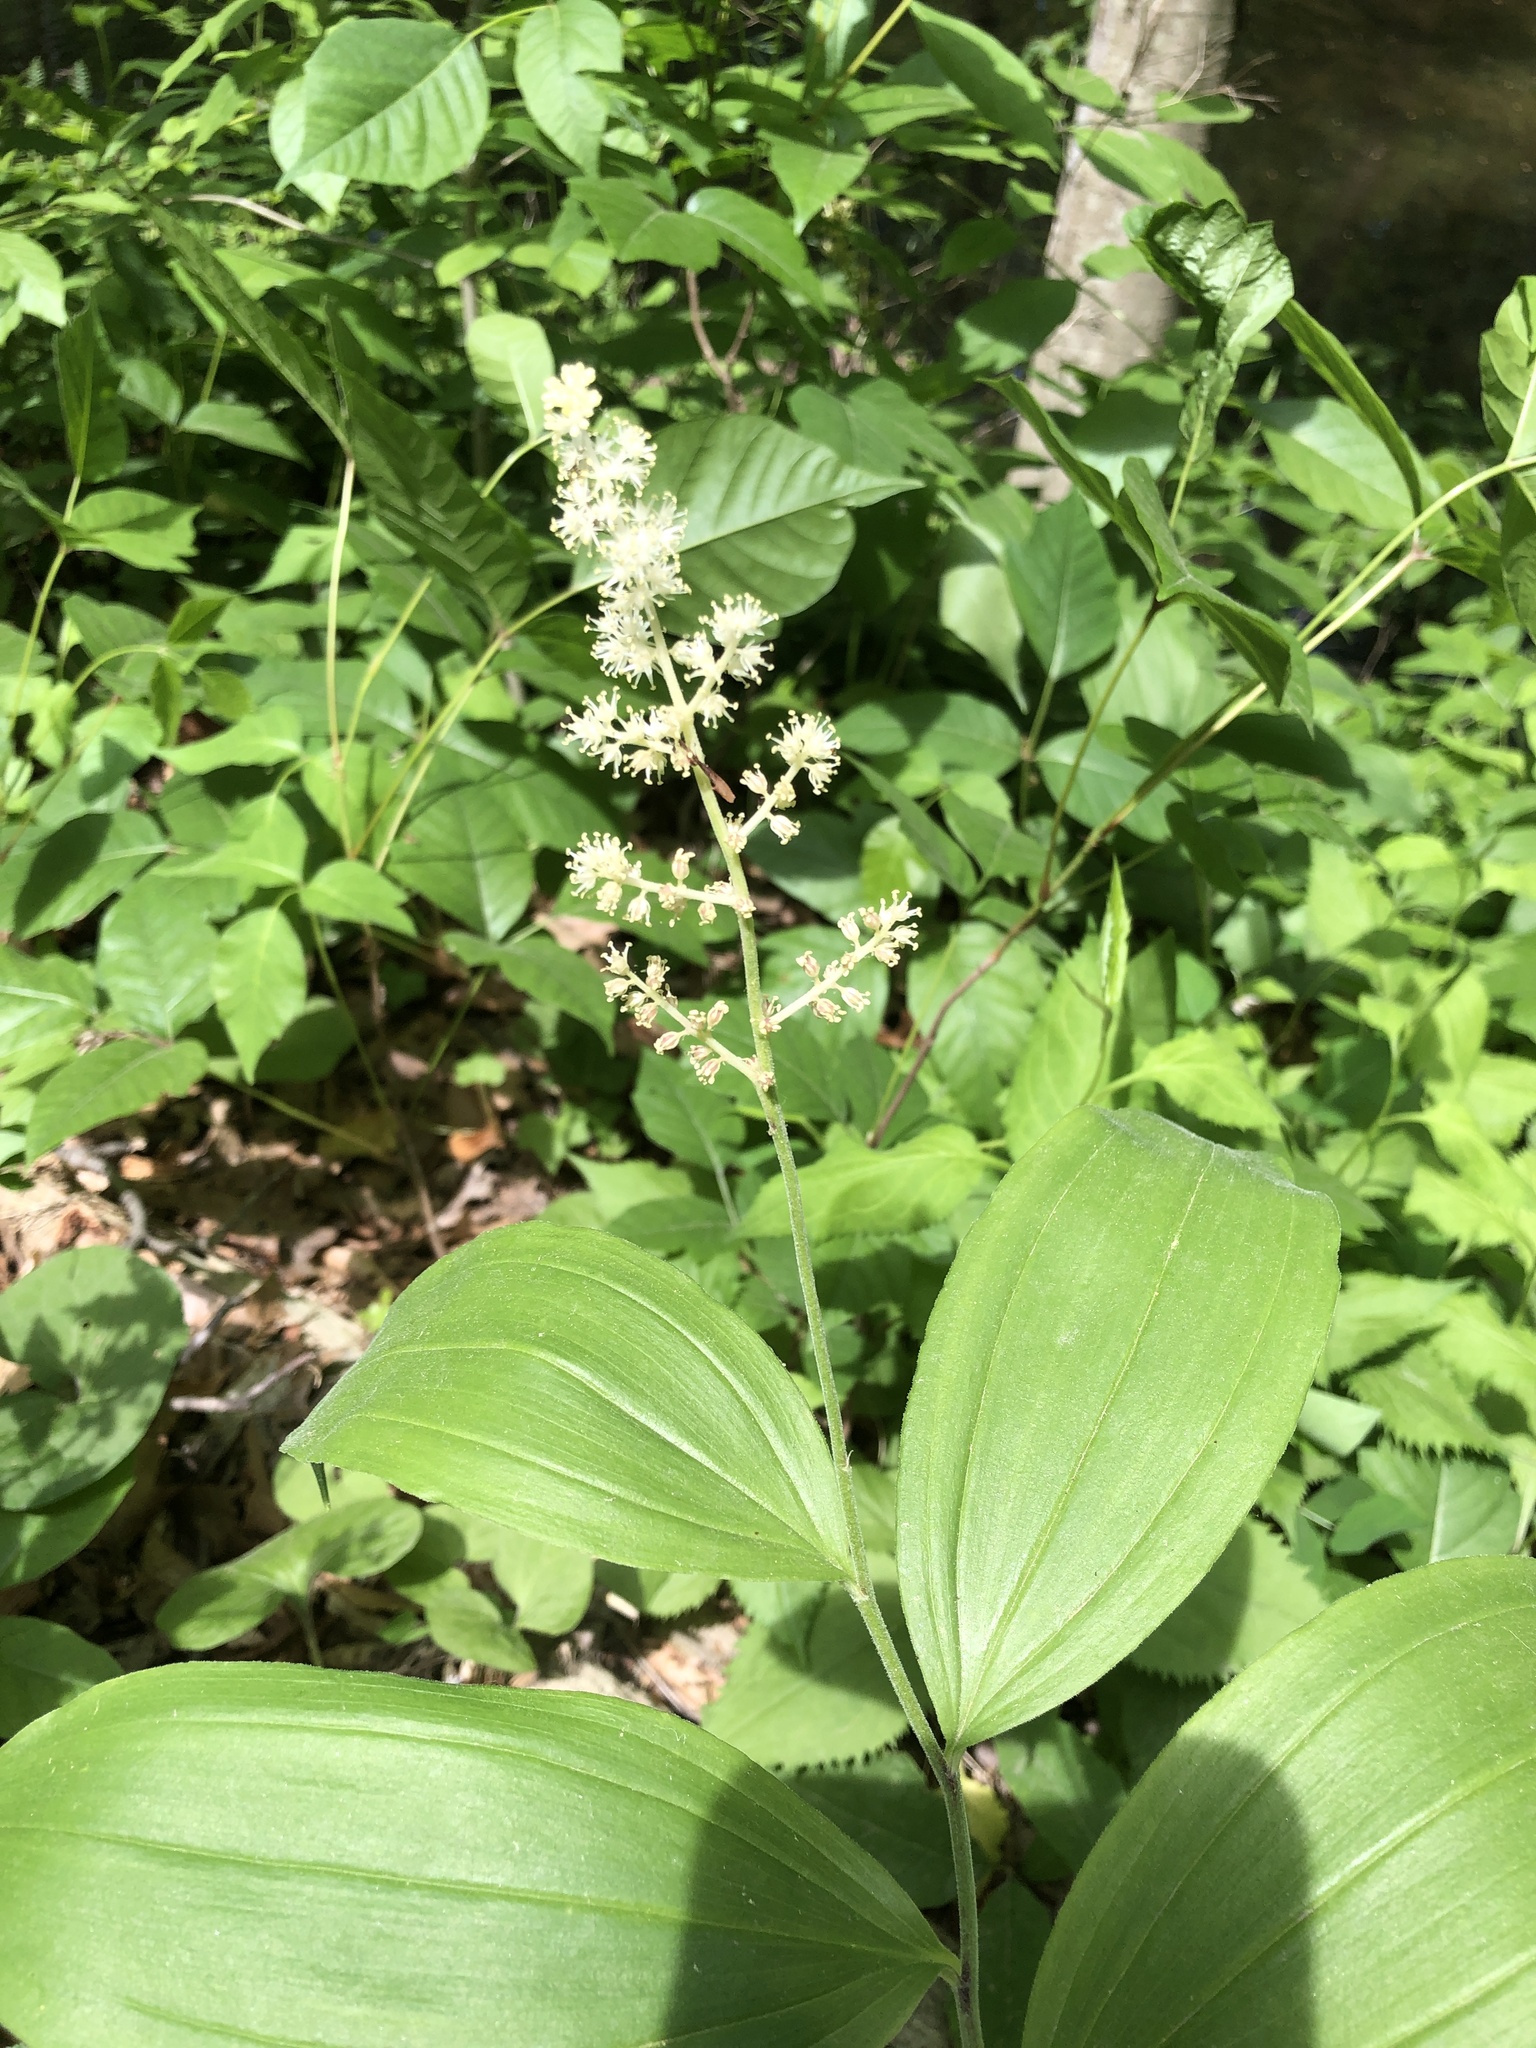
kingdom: Plantae
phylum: Tracheophyta
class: Liliopsida
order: Asparagales
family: Asparagaceae
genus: Maianthemum
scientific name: Maianthemum racemosum
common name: False spikenard
